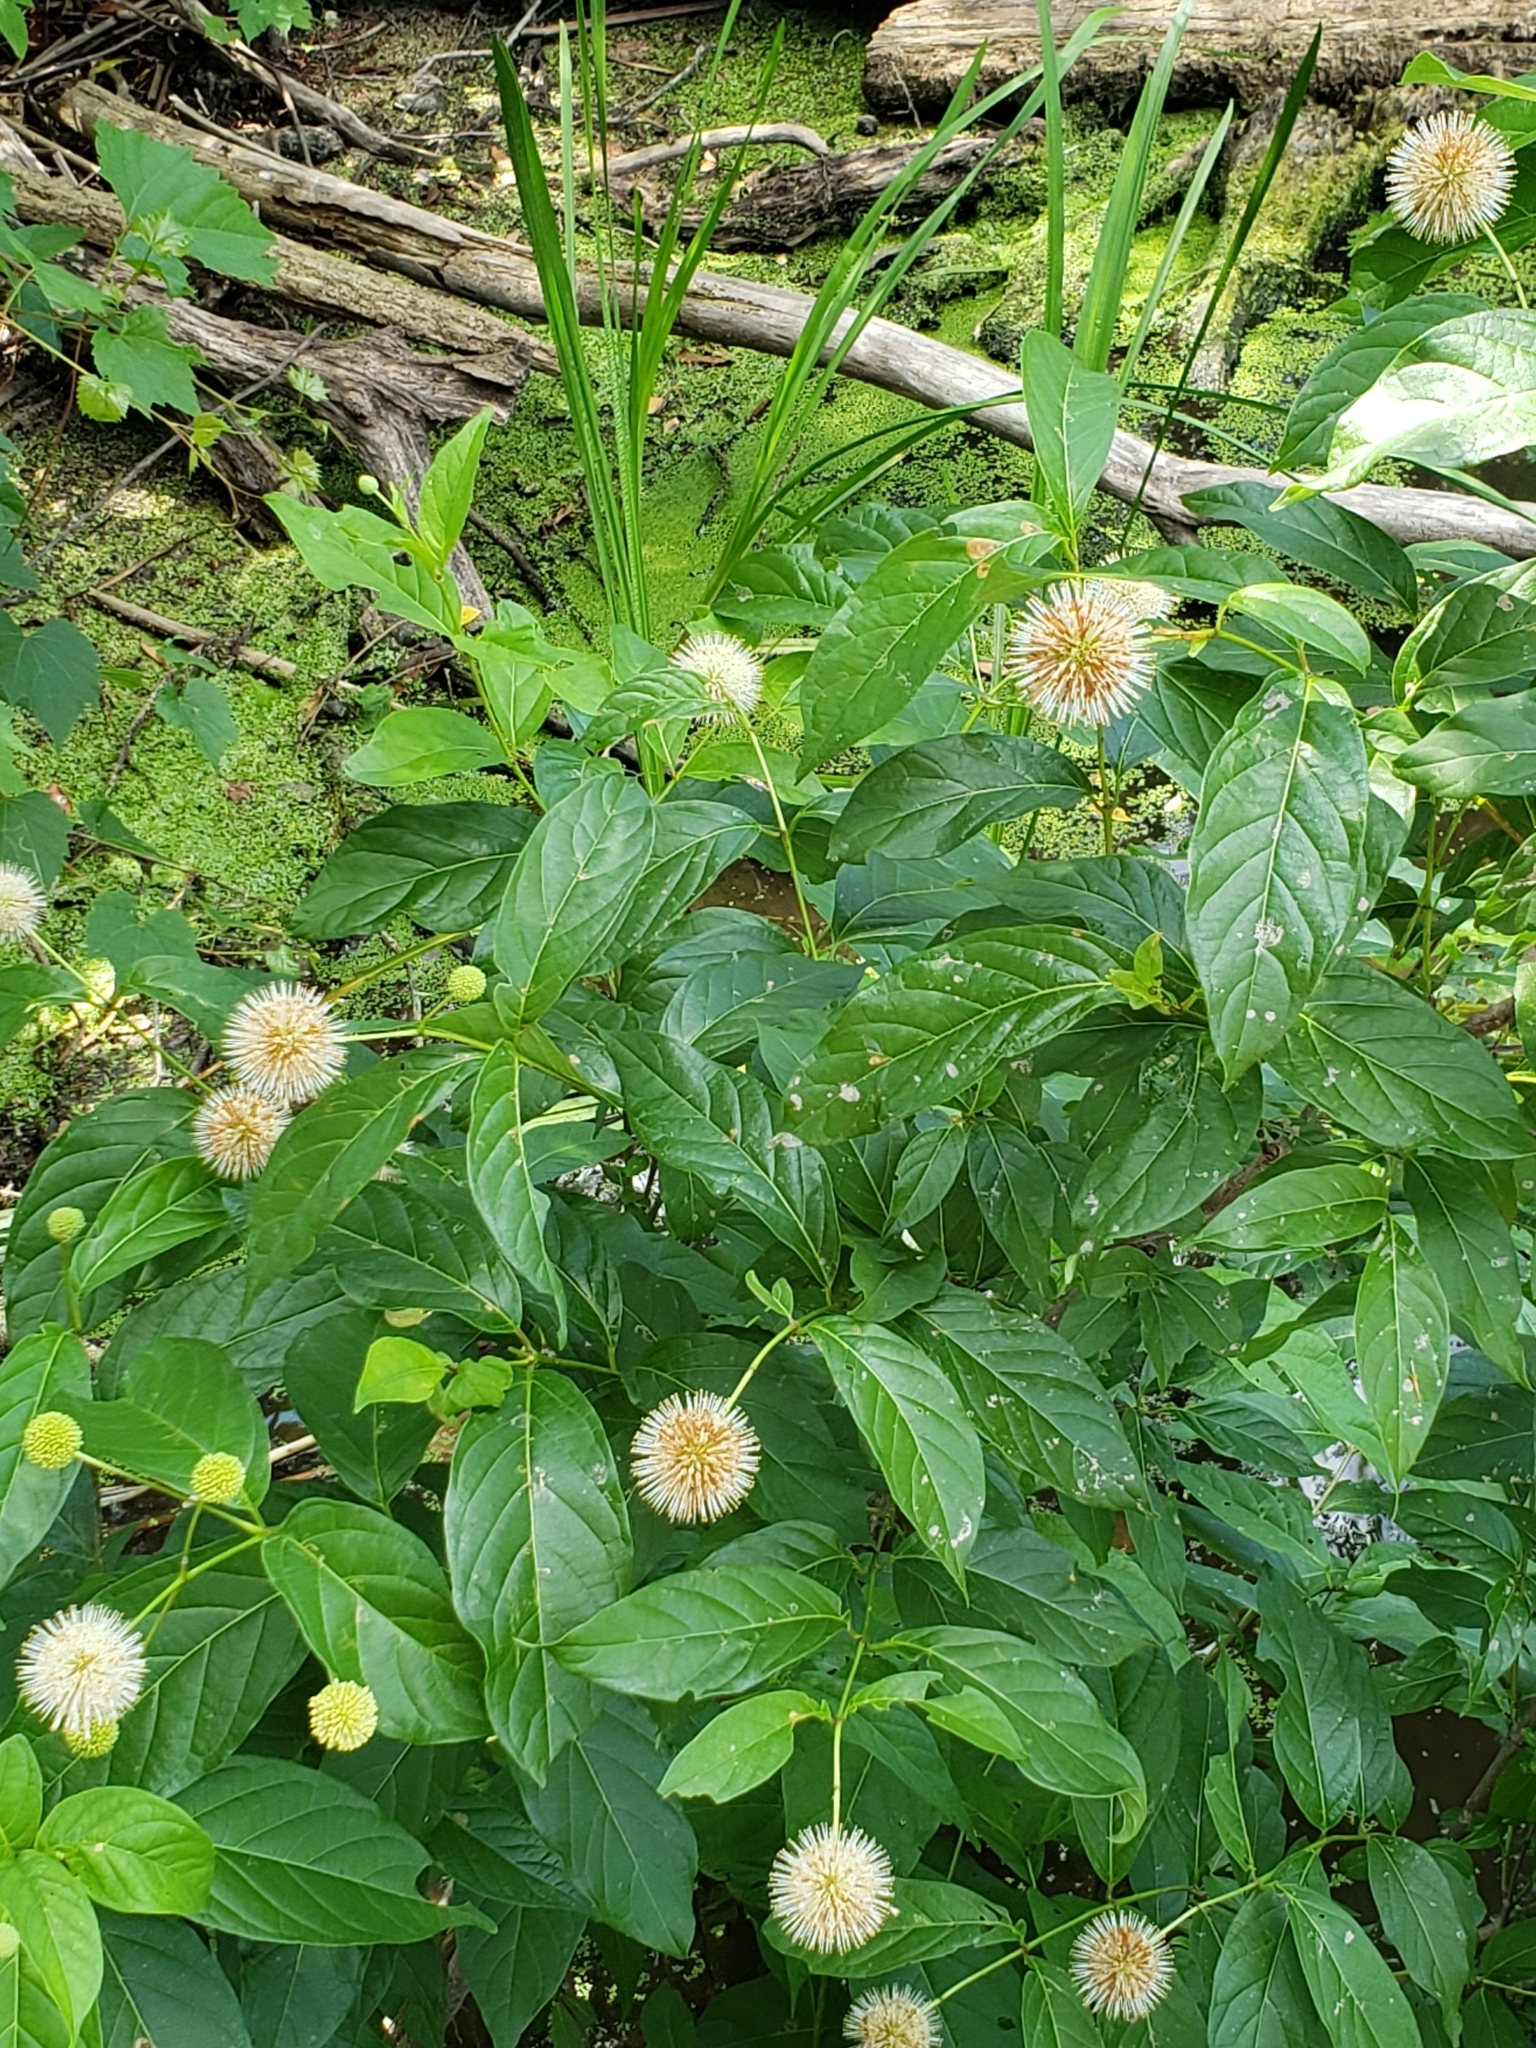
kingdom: Plantae
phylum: Tracheophyta
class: Magnoliopsida
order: Gentianales
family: Rubiaceae
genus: Cephalanthus
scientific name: Cephalanthus occidentalis
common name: Button-willow
